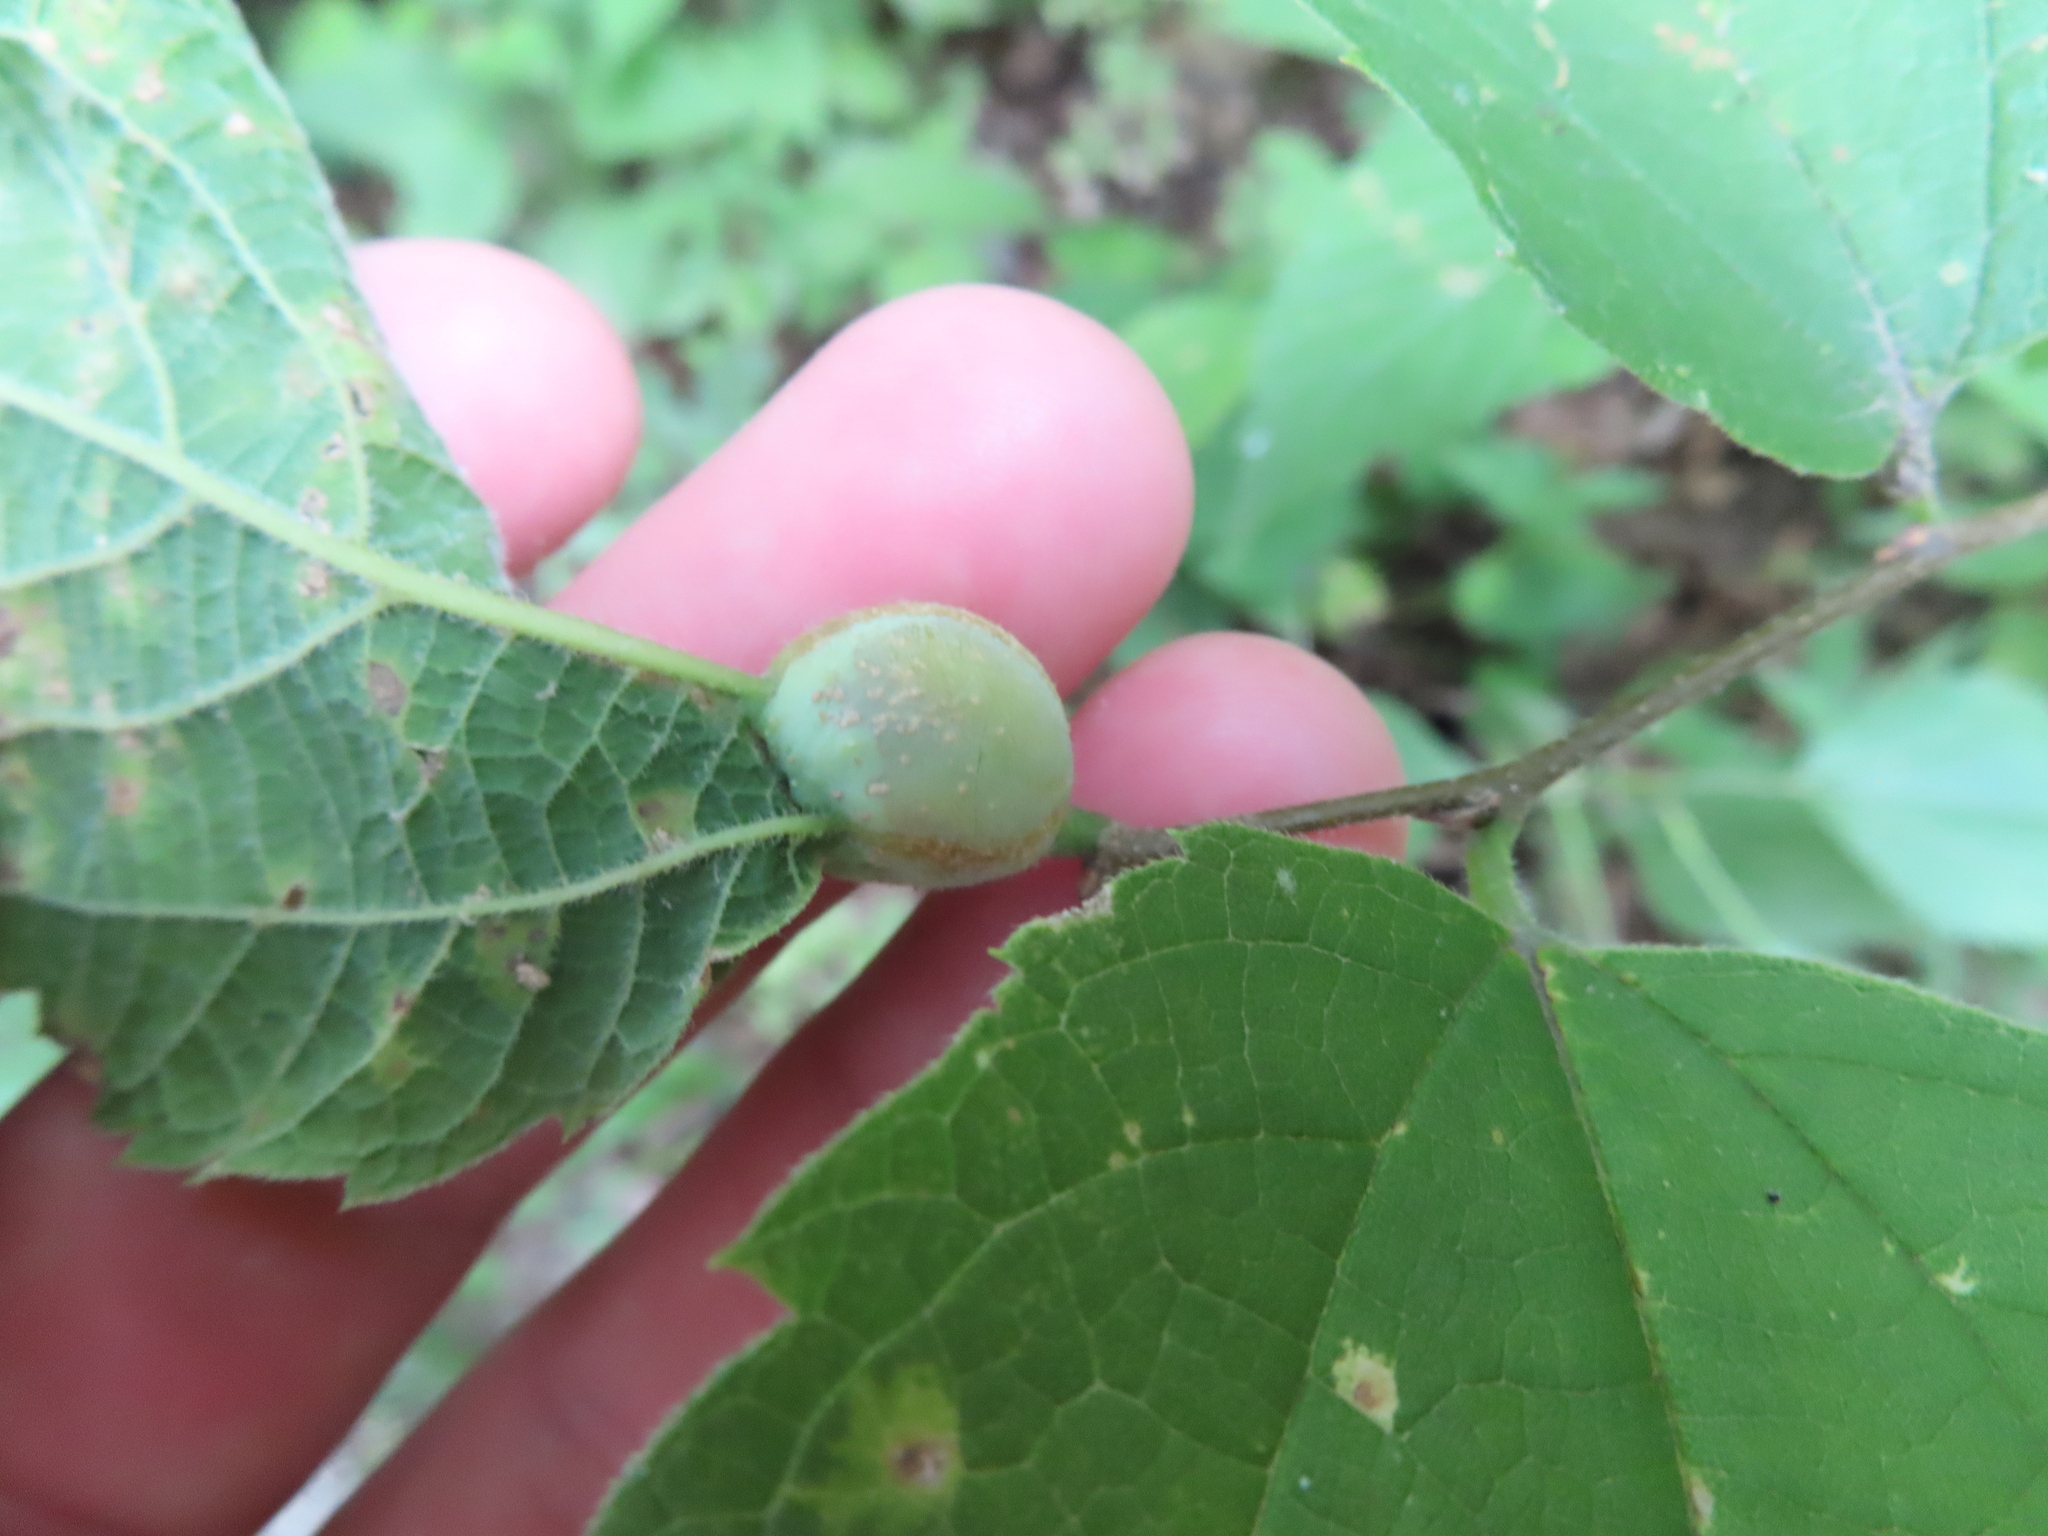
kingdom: Animalia
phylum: Arthropoda
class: Insecta
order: Hemiptera
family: Aphalaridae
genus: Pachypsylla
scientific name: Pachypsylla venusta
